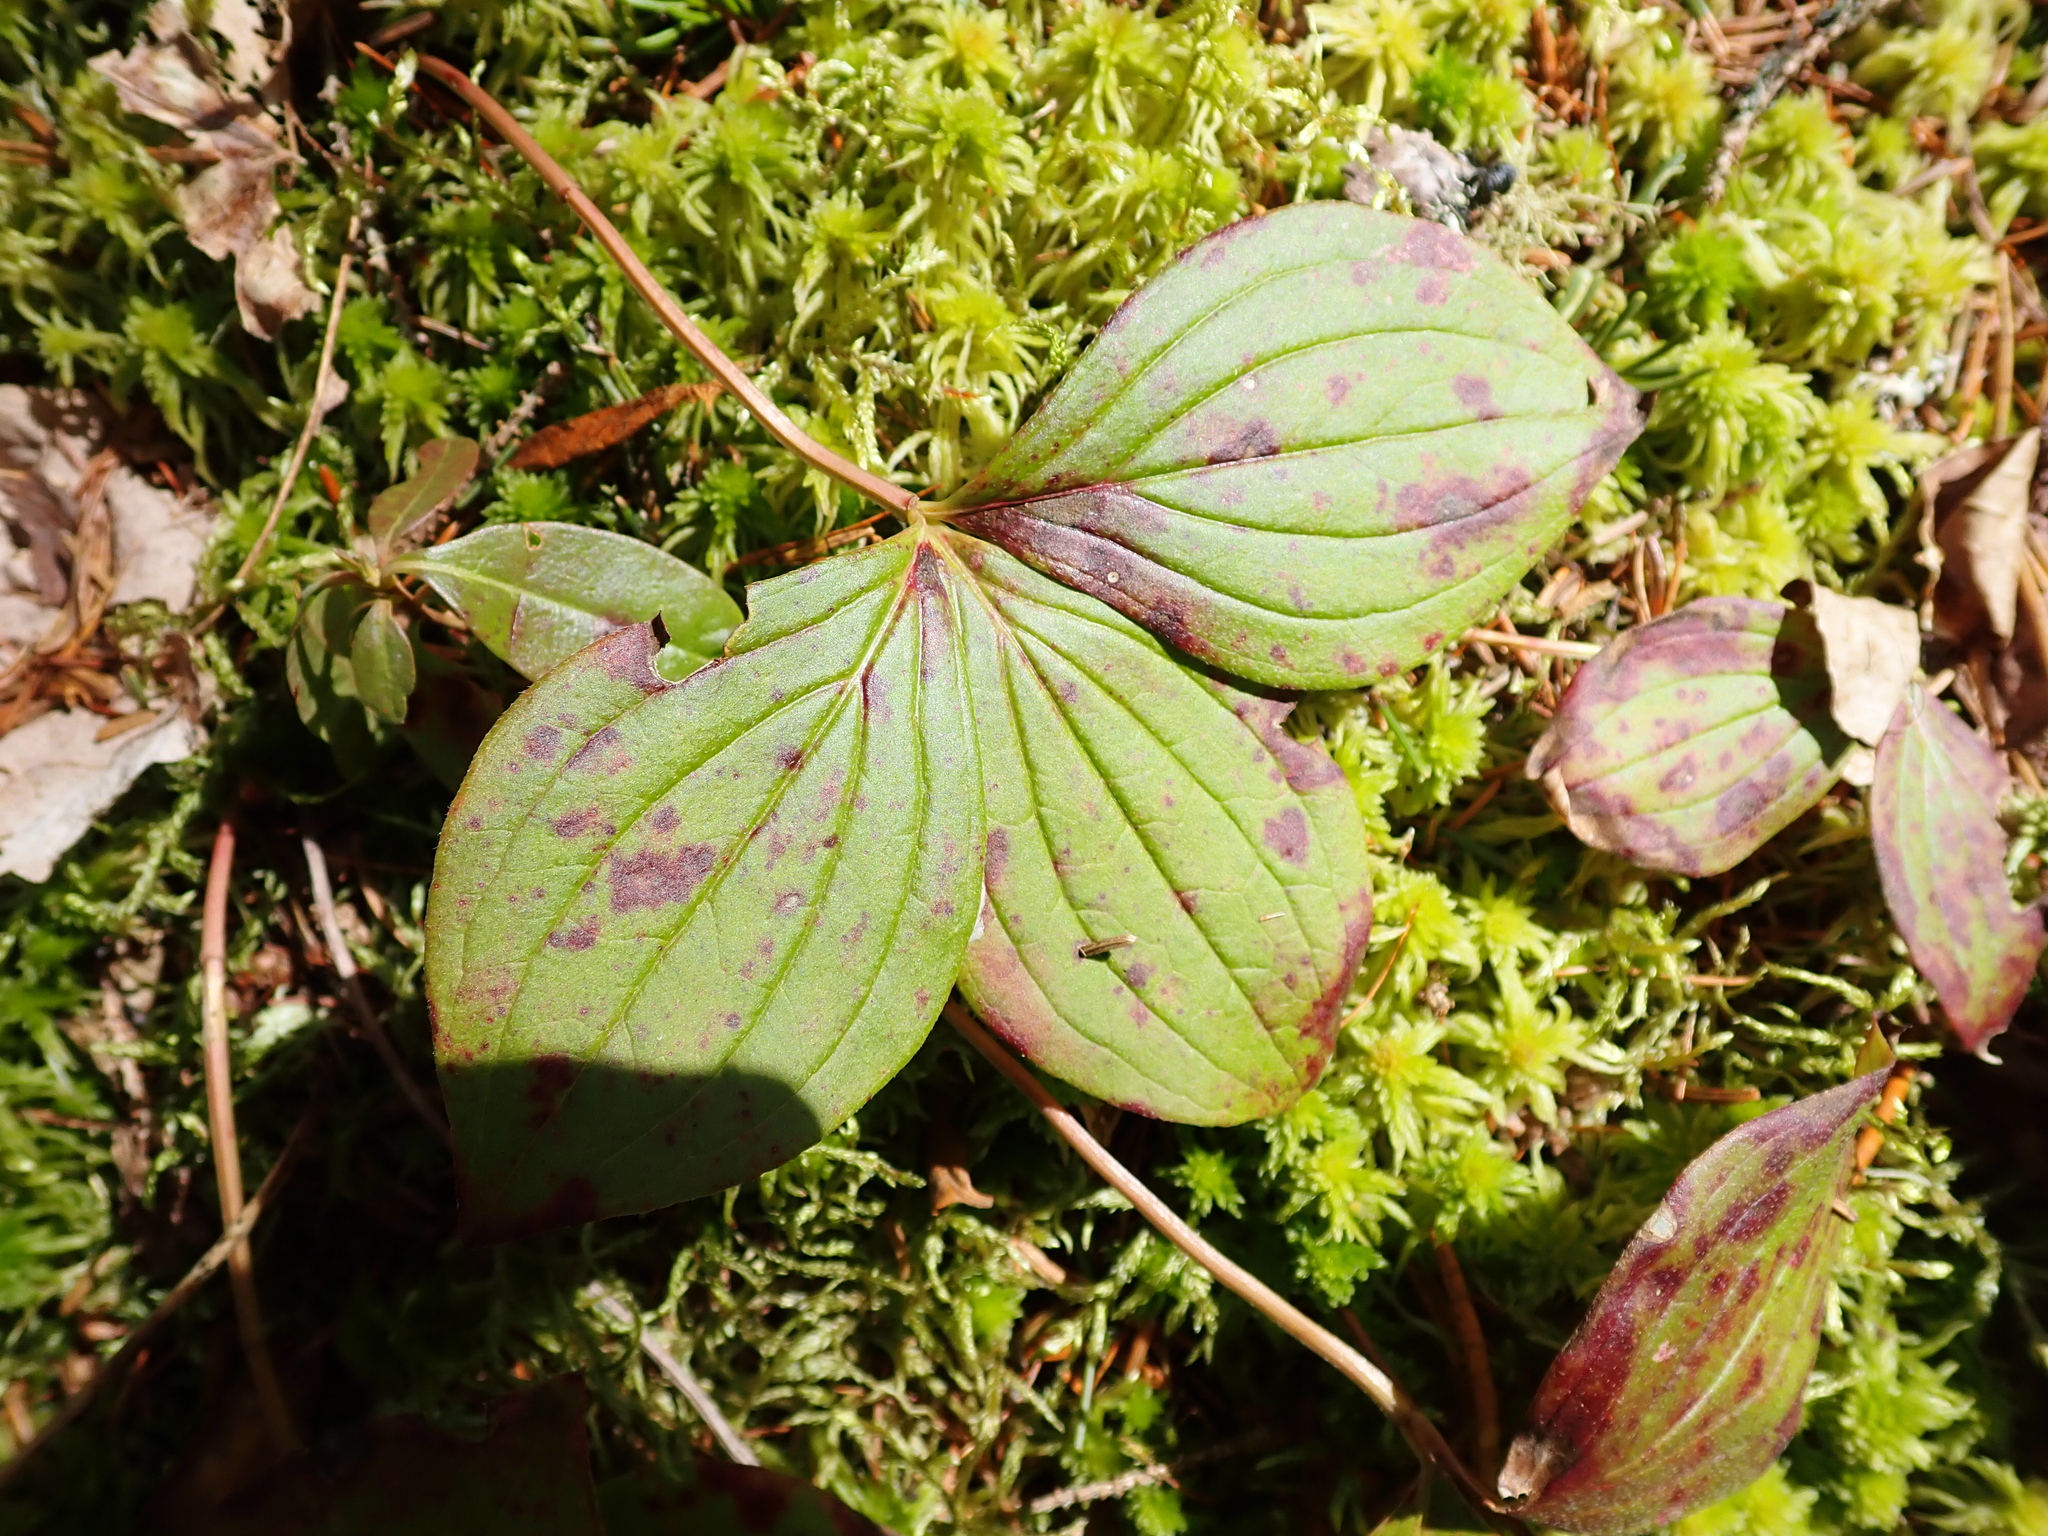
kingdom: Plantae
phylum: Tracheophyta
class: Magnoliopsida
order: Cornales
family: Cornaceae
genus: Cornus
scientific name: Cornus canadensis
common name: Creeping dogwood
